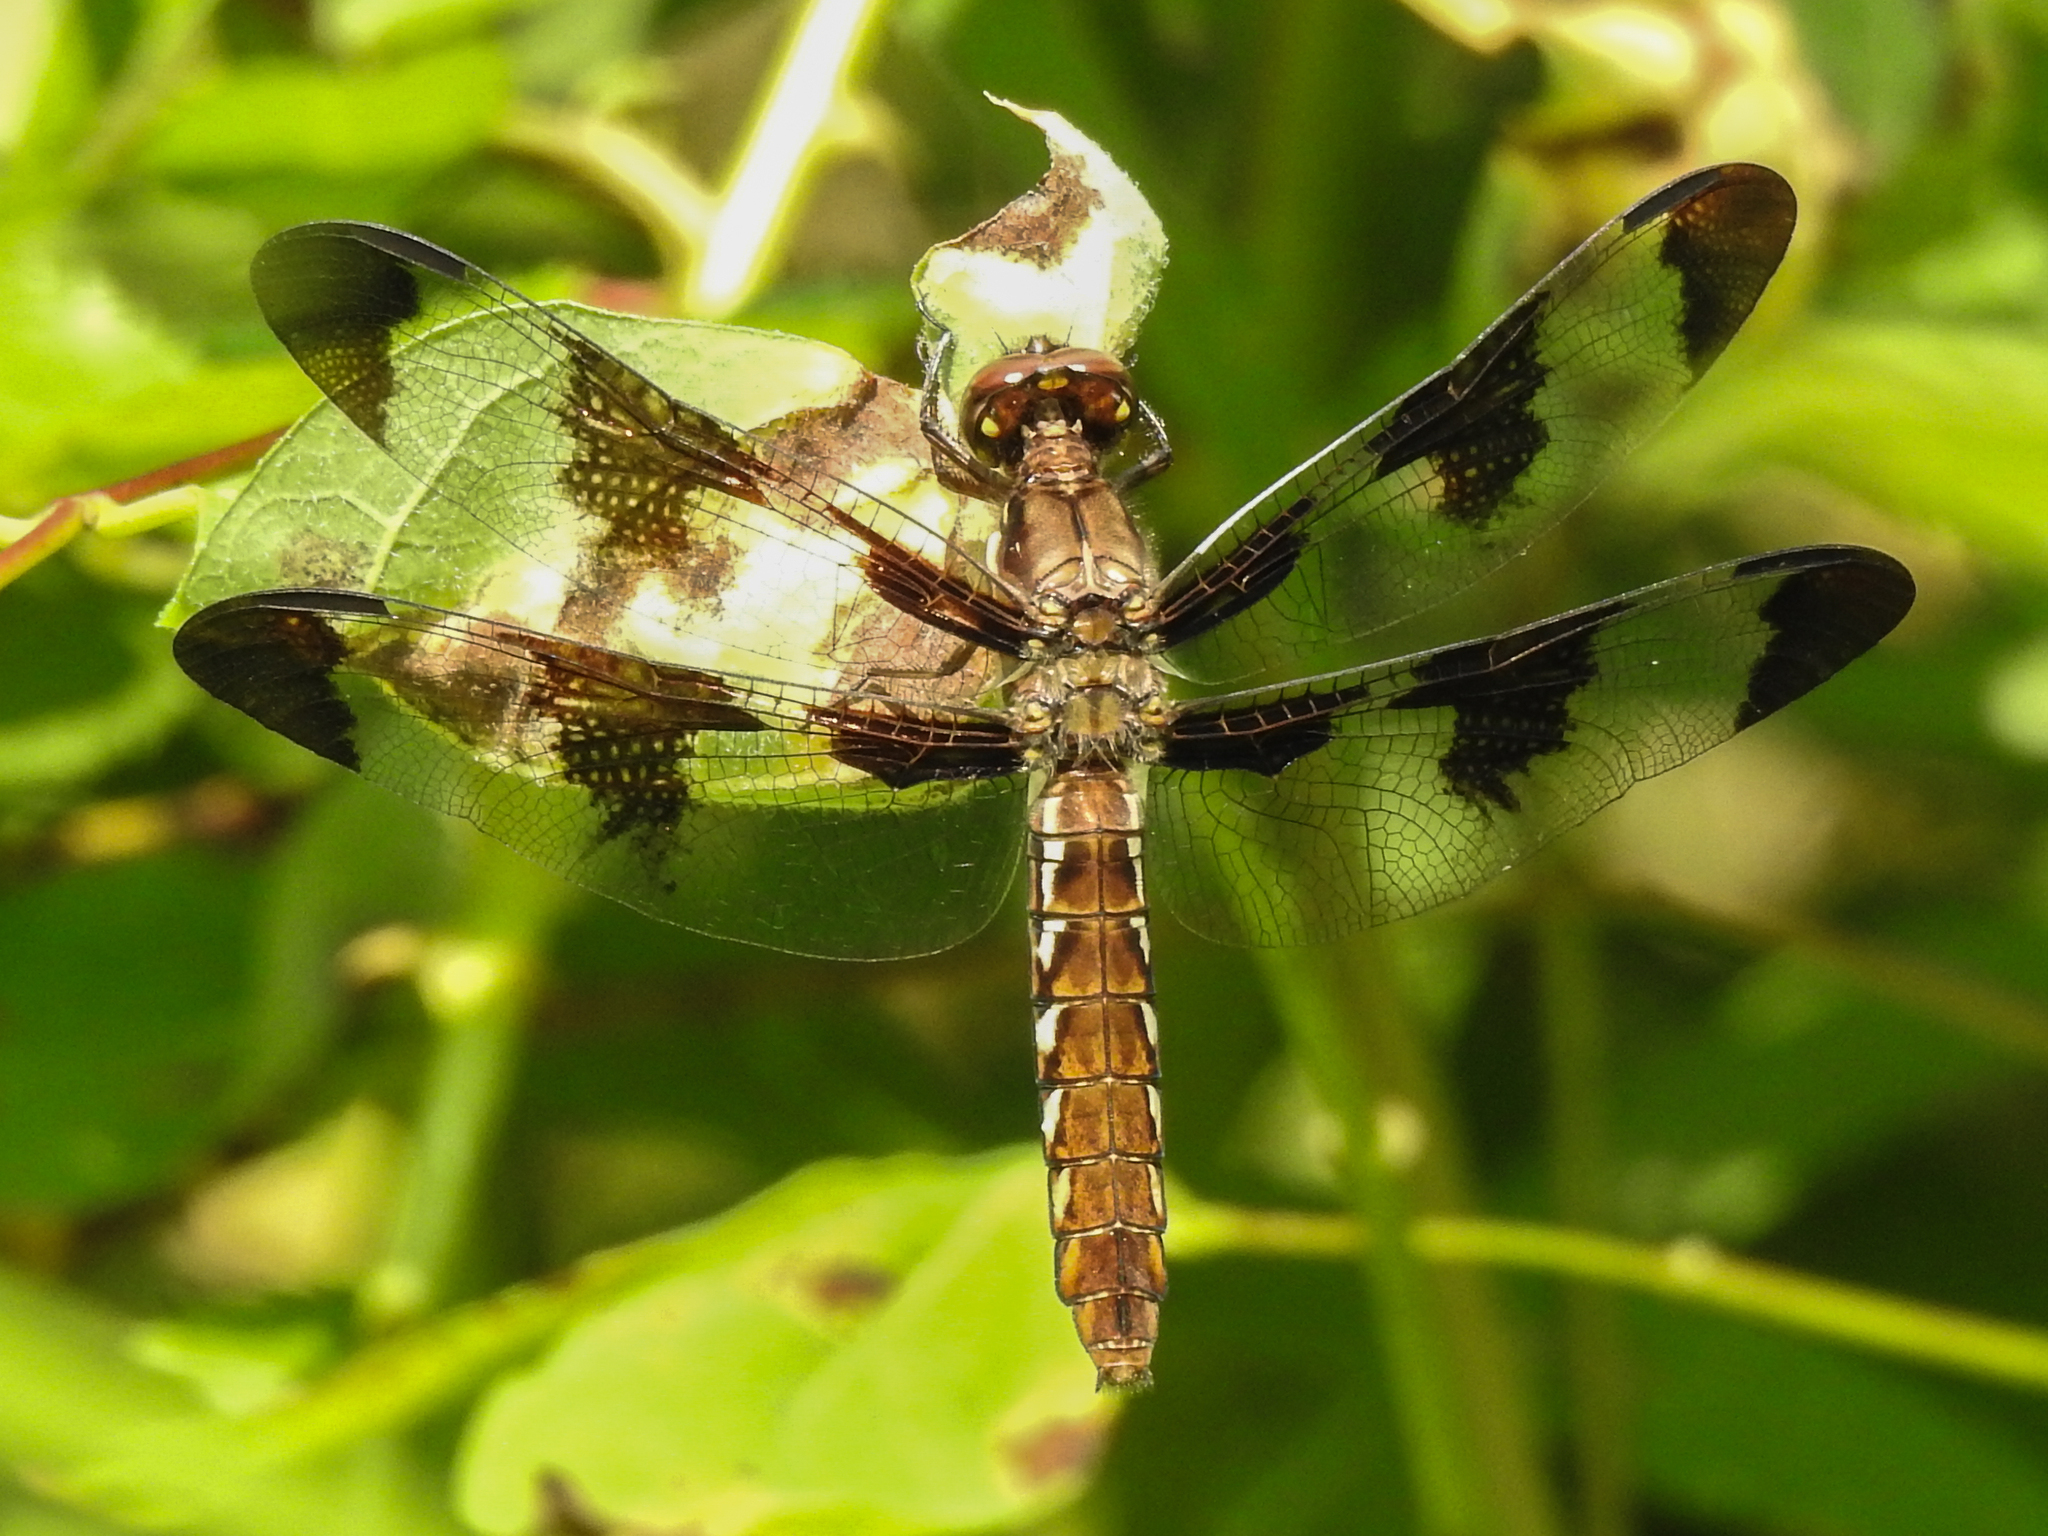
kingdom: Animalia
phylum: Arthropoda
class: Insecta
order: Odonata
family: Libellulidae
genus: Plathemis
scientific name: Plathemis lydia
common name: Common whitetail
